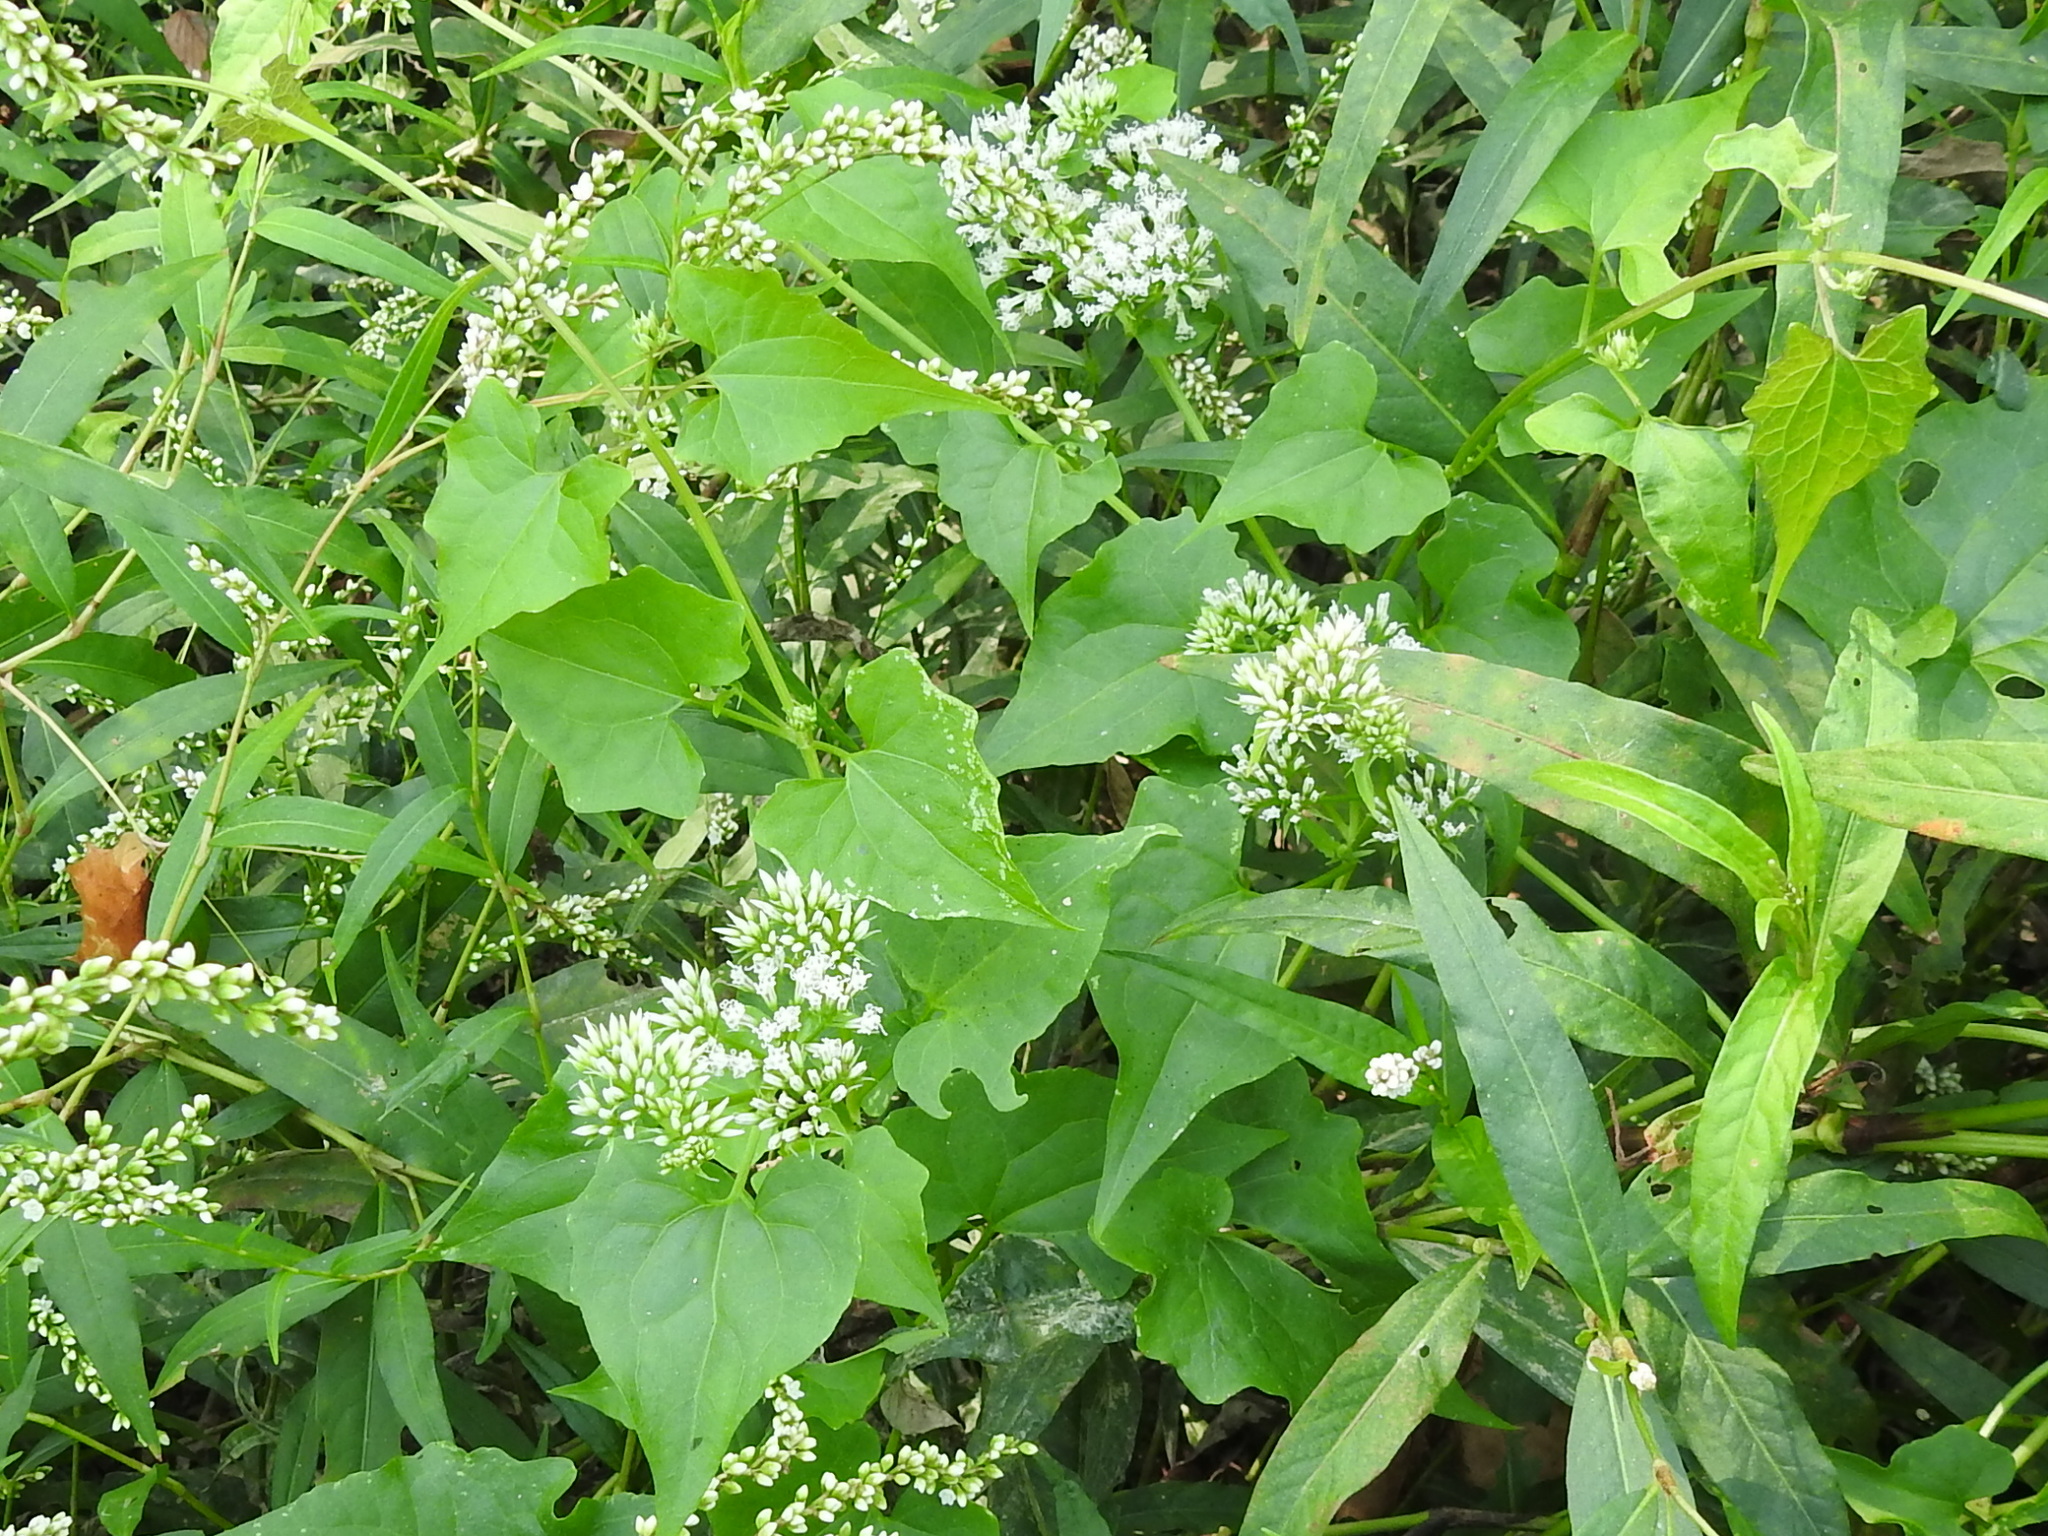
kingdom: Plantae
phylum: Tracheophyta
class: Magnoliopsida
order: Asterales
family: Asteraceae
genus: Mikania
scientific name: Mikania scandens
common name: Climbing hempvine
